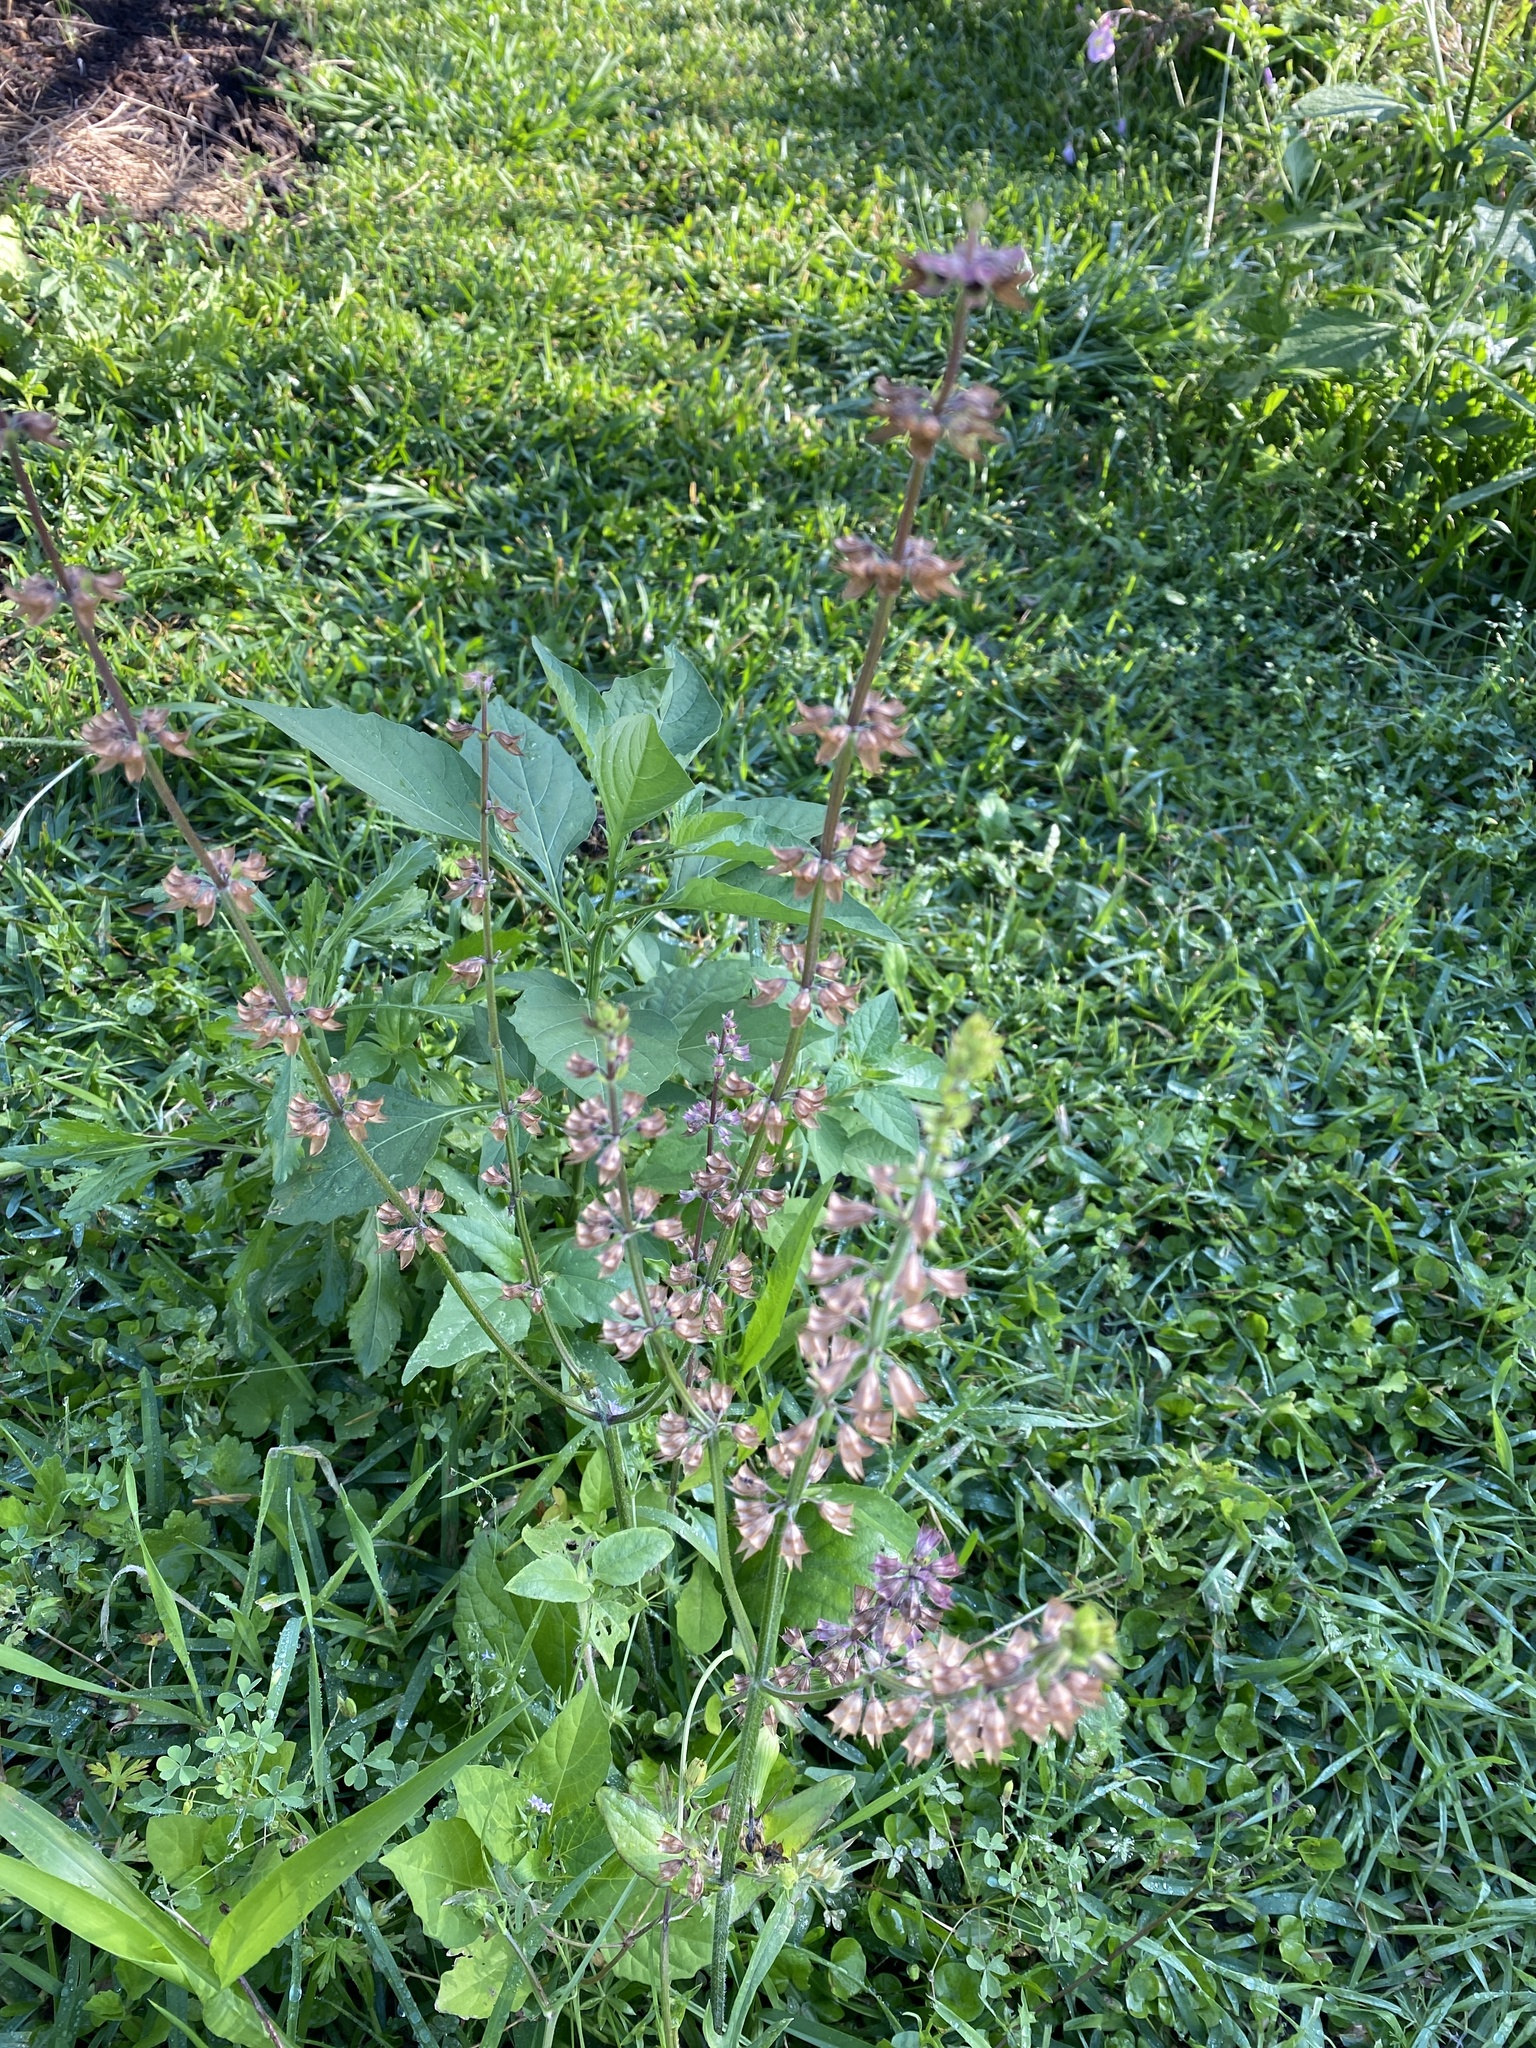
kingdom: Plantae
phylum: Tracheophyta
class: Magnoliopsida
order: Lamiales
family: Lamiaceae
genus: Salvia
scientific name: Salvia lyrata
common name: Cancerweed
